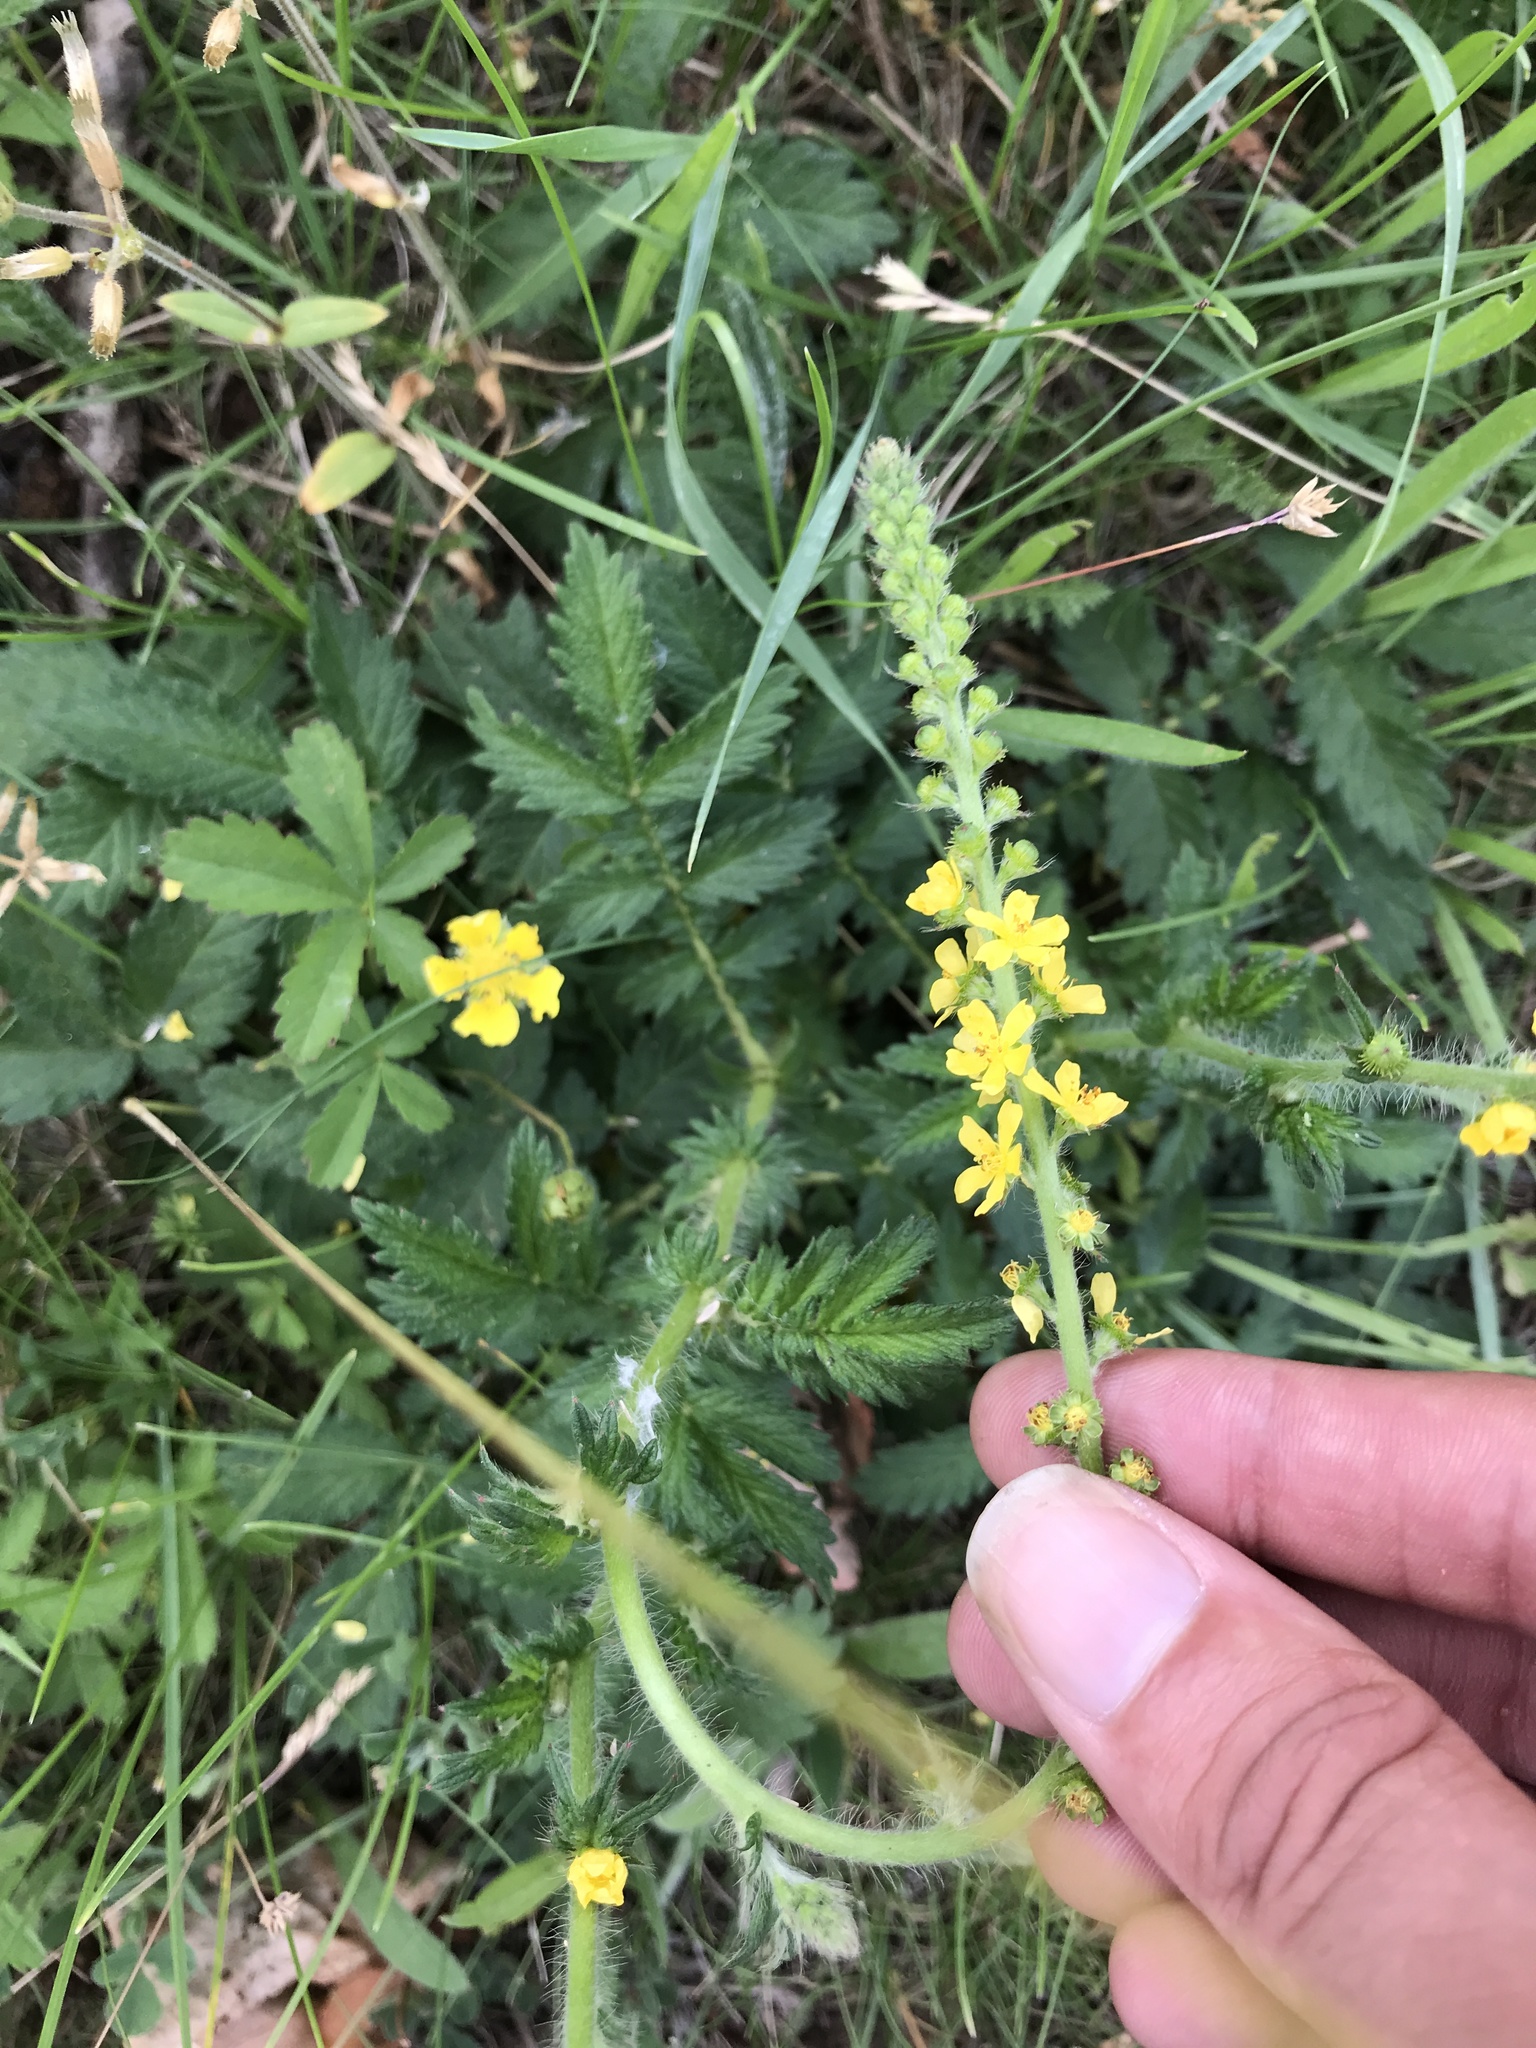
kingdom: Plantae
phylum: Tracheophyta
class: Magnoliopsida
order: Rosales
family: Rosaceae
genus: Agrimonia
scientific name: Agrimonia eupatoria
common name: Agrimony
